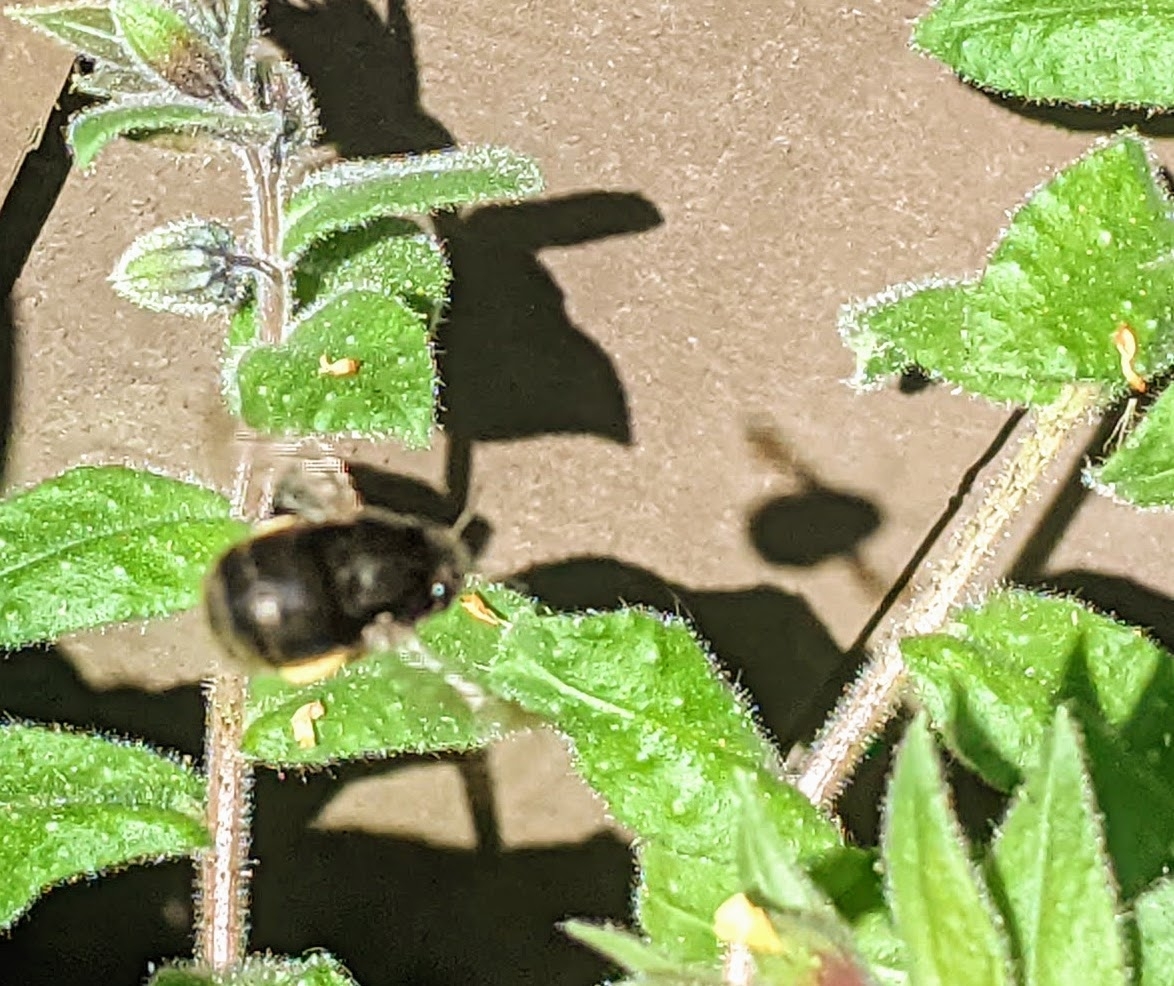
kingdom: Animalia
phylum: Arthropoda
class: Insecta
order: Hymenoptera
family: Apidae
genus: Anthophora
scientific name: Anthophora plumipes
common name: Hairy-footed flower bee
